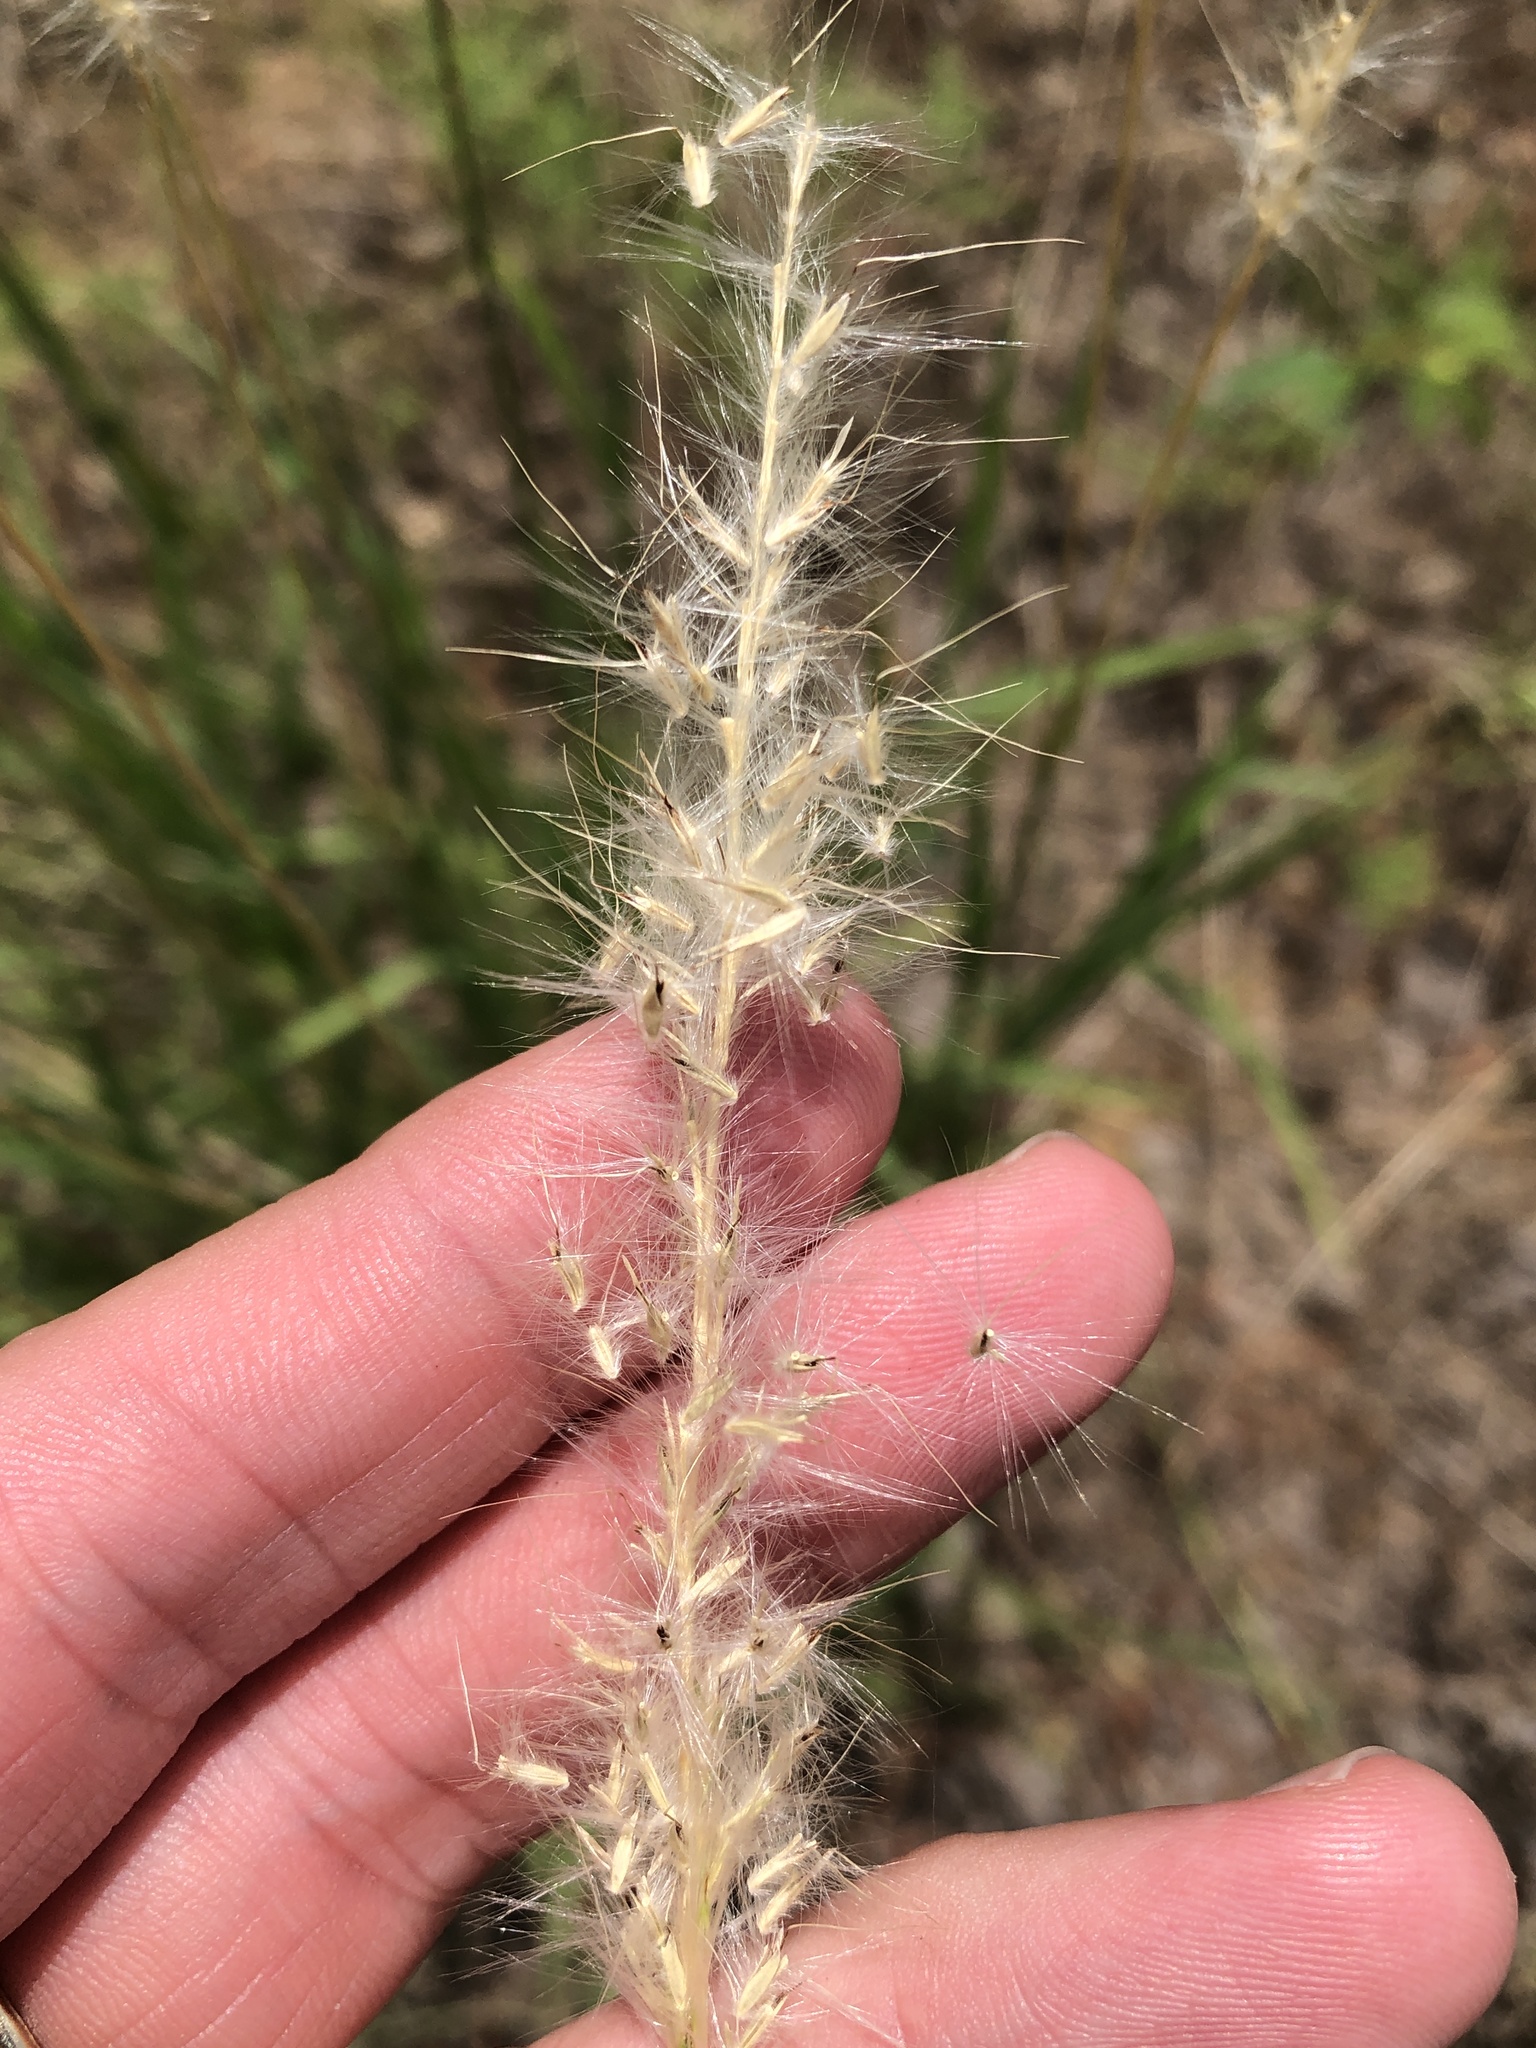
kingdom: Plantae
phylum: Tracheophyta
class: Liliopsida
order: Poales
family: Poaceae
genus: Bothriochloa
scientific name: Bothriochloa torreyana
